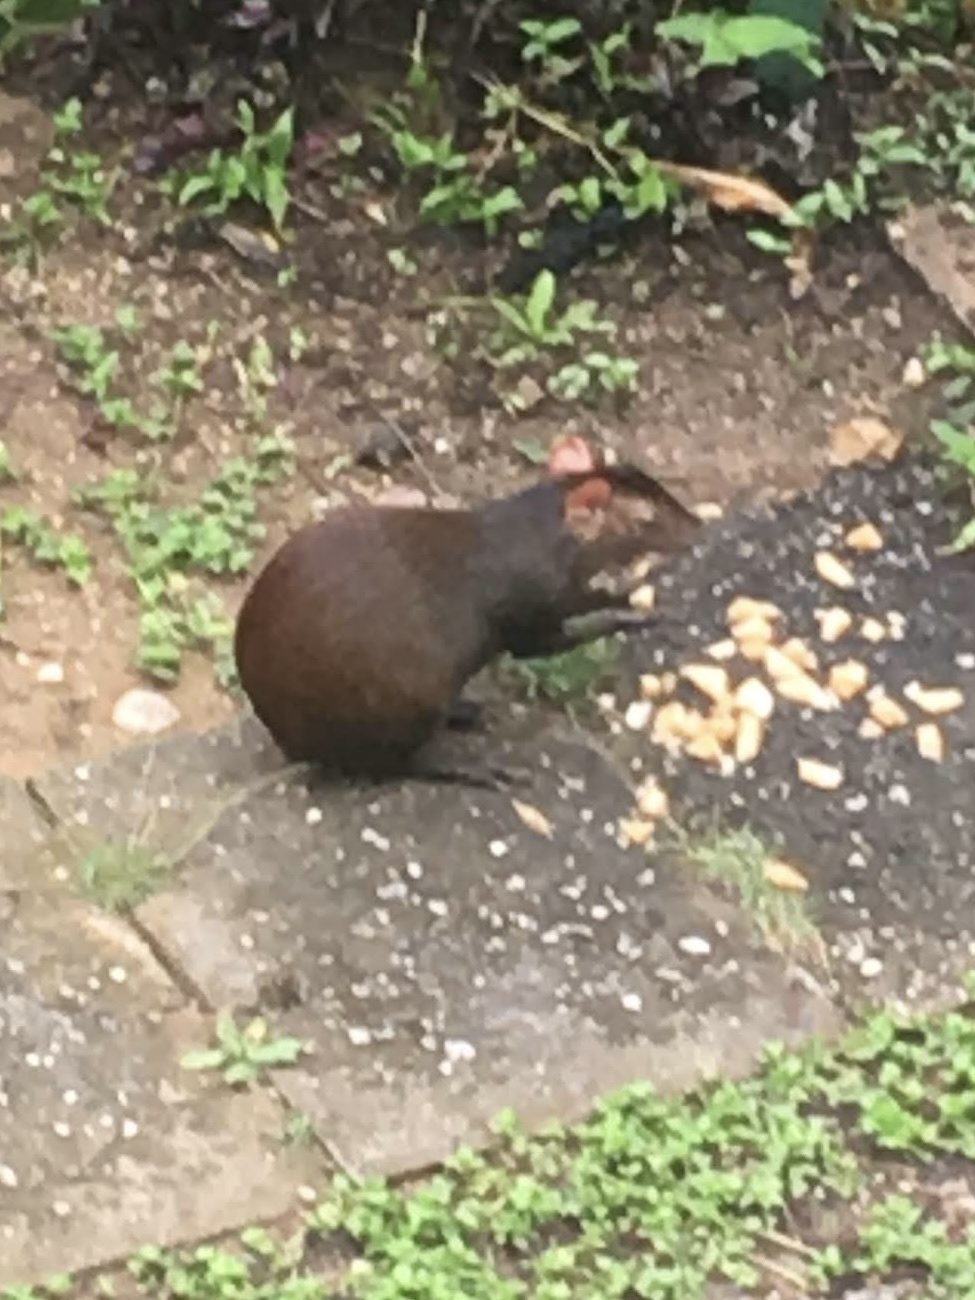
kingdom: Animalia
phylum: Chordata
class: Mammalia
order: Rodentia
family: Dasyproctidae
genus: Dasyprocta
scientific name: Dasyprocta leporina
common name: Red-rumped agouti
